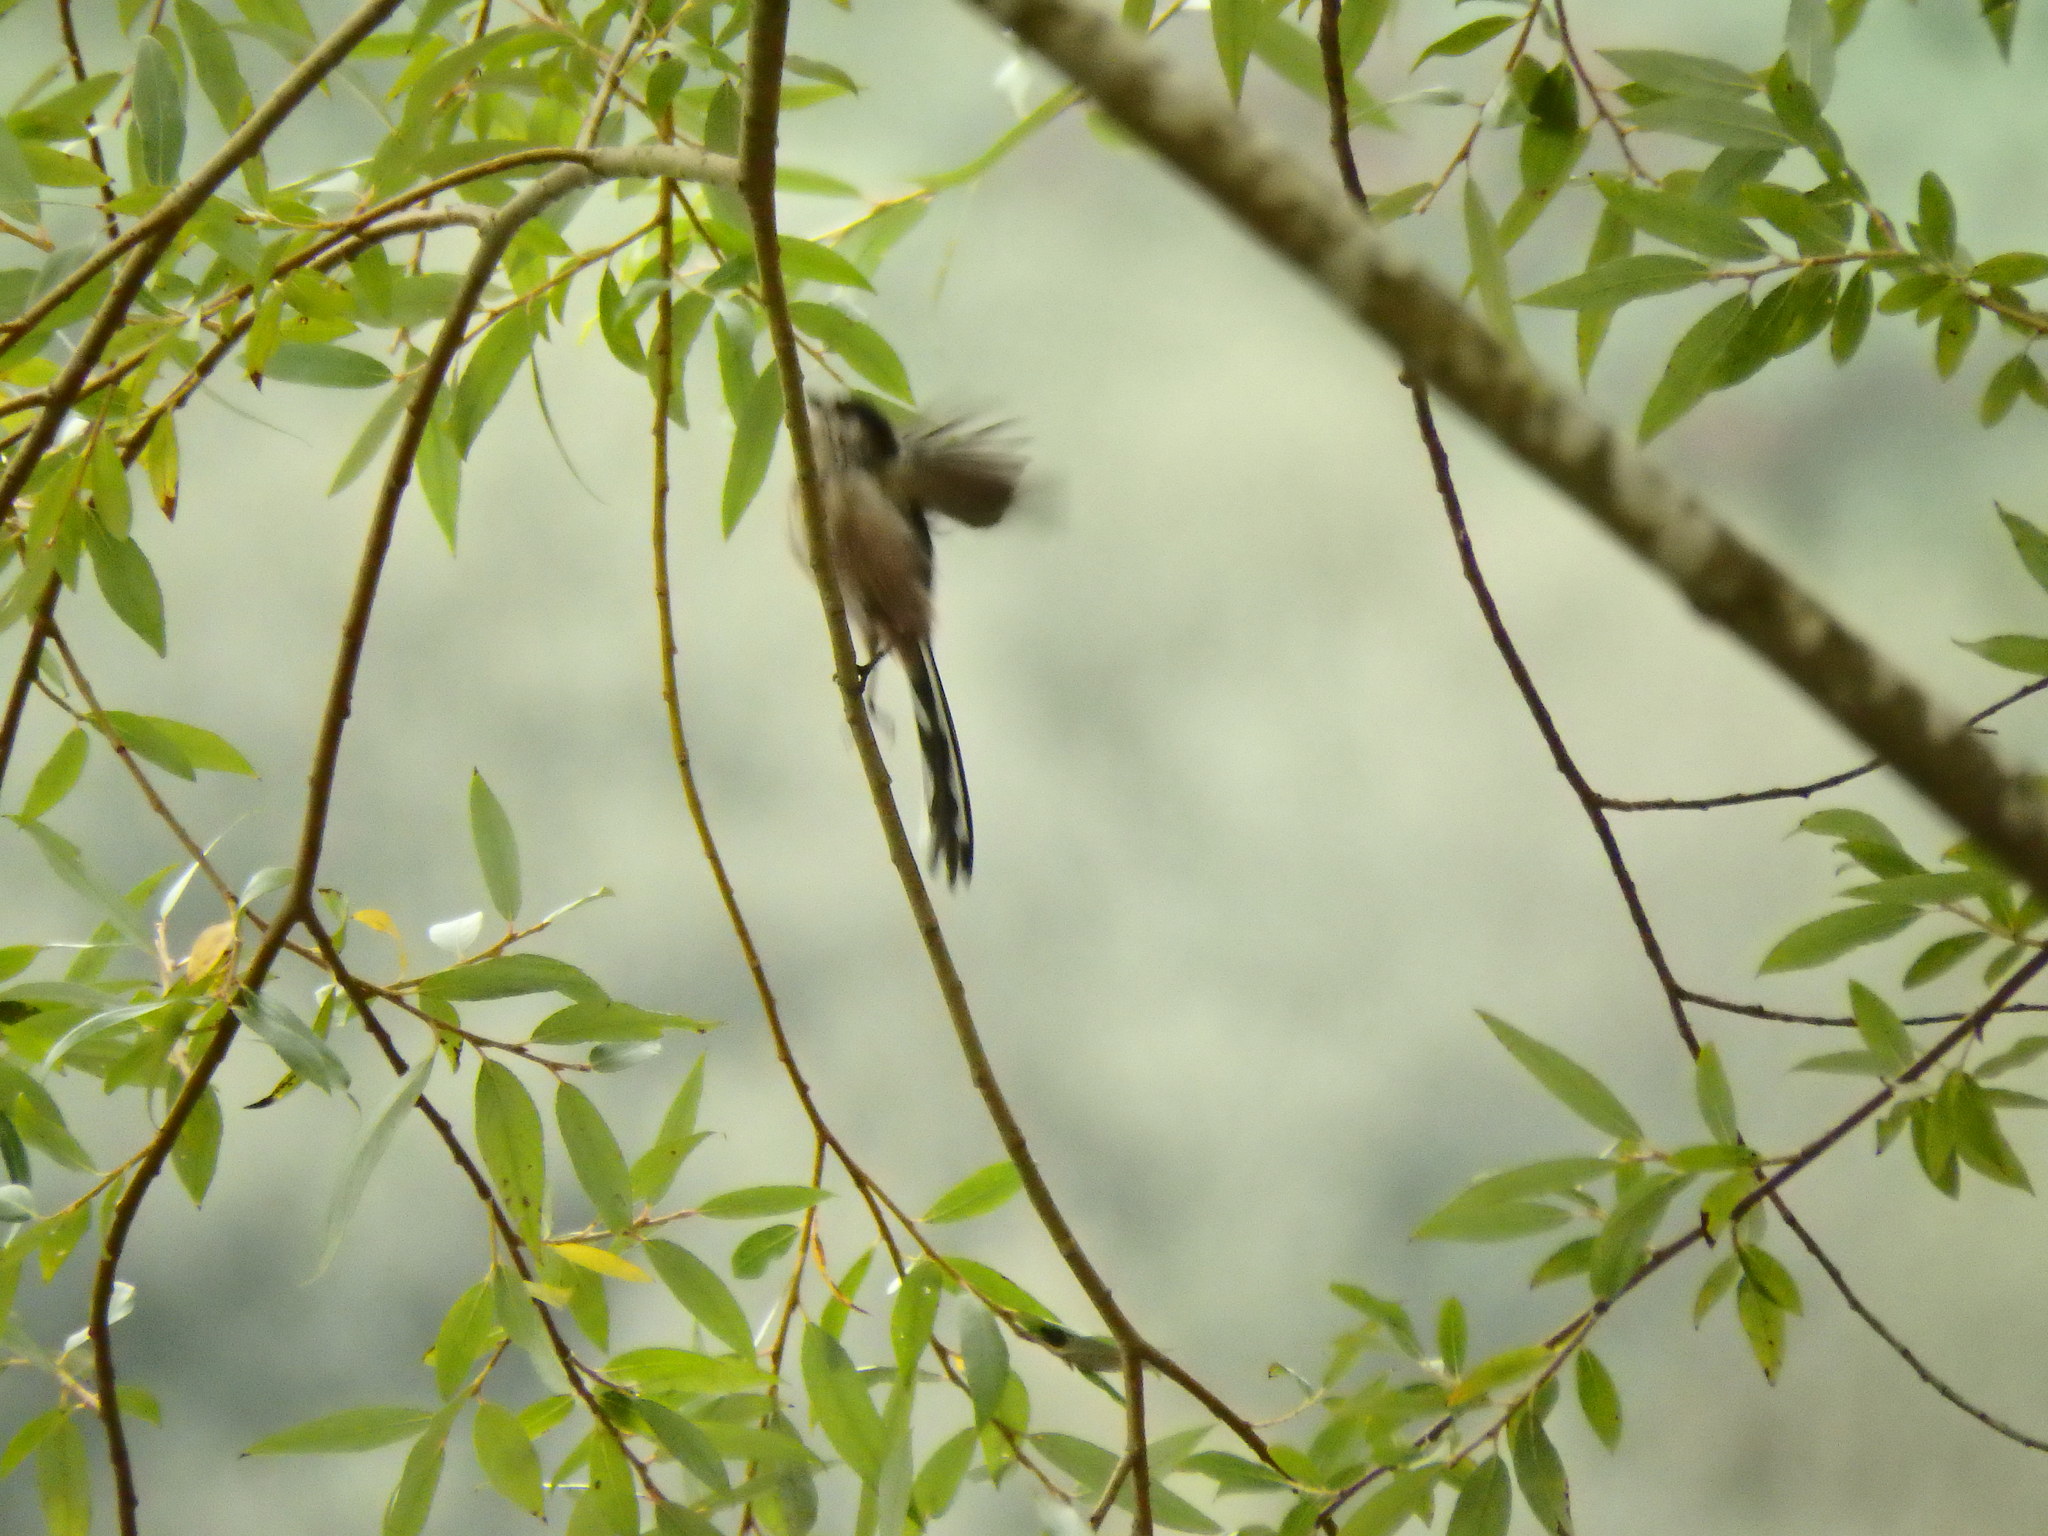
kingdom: Animalia
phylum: Chordata
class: Aves
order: Passeriformes
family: Aegithalidae
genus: Aegithalos
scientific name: Aegithalos caudatus
